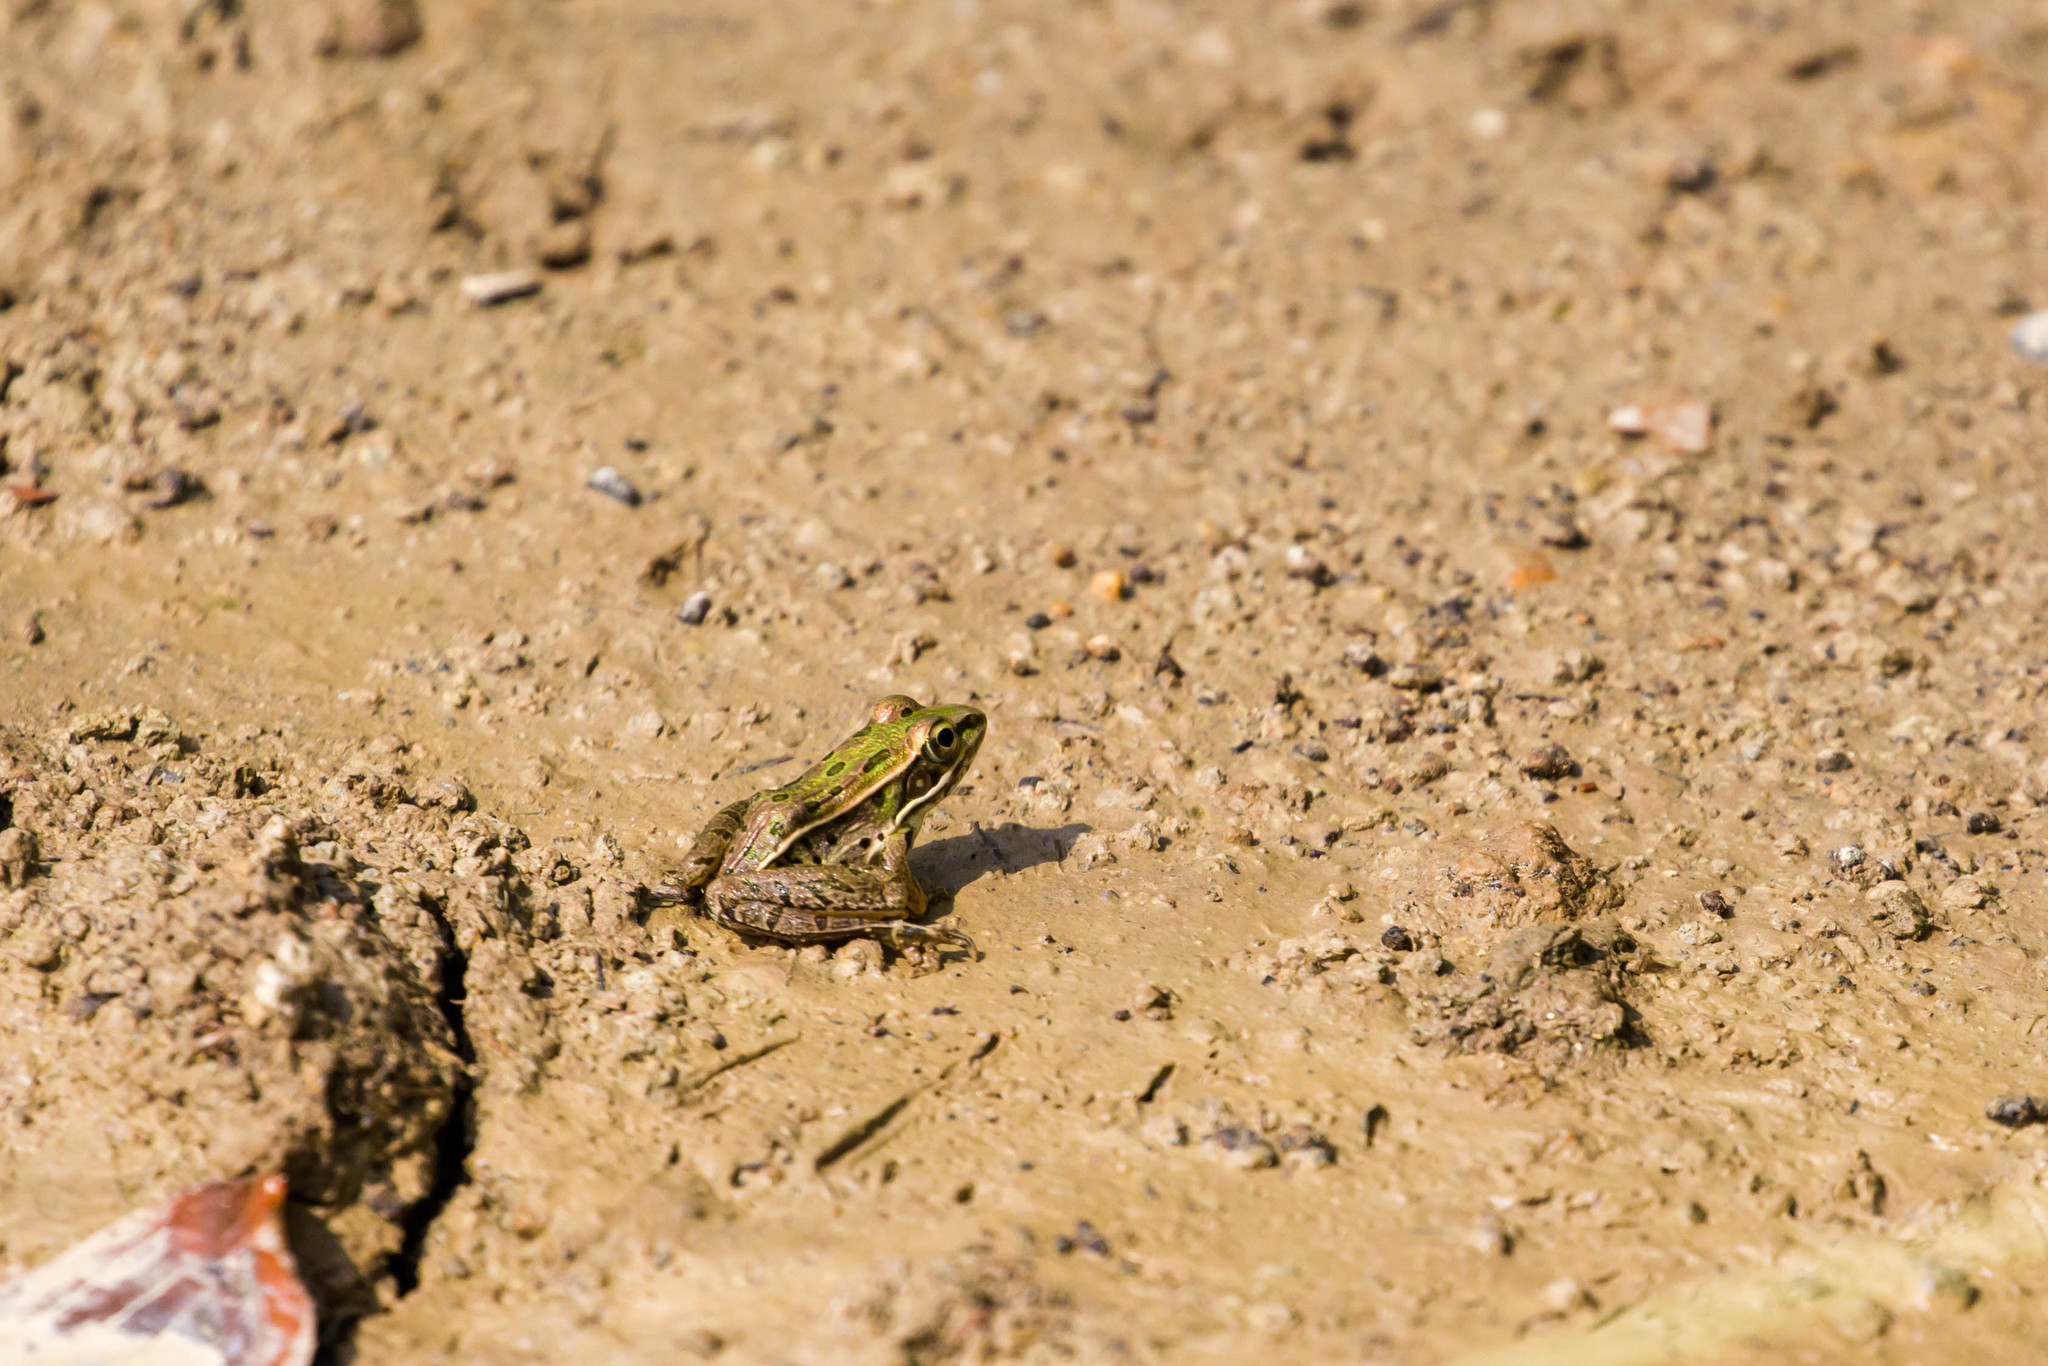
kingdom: Animalia
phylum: Chordata
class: Amphibia
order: Anura
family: Ranidae
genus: Lithobates
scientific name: Lithobates sphenocephalus
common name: Southern leopard frog
